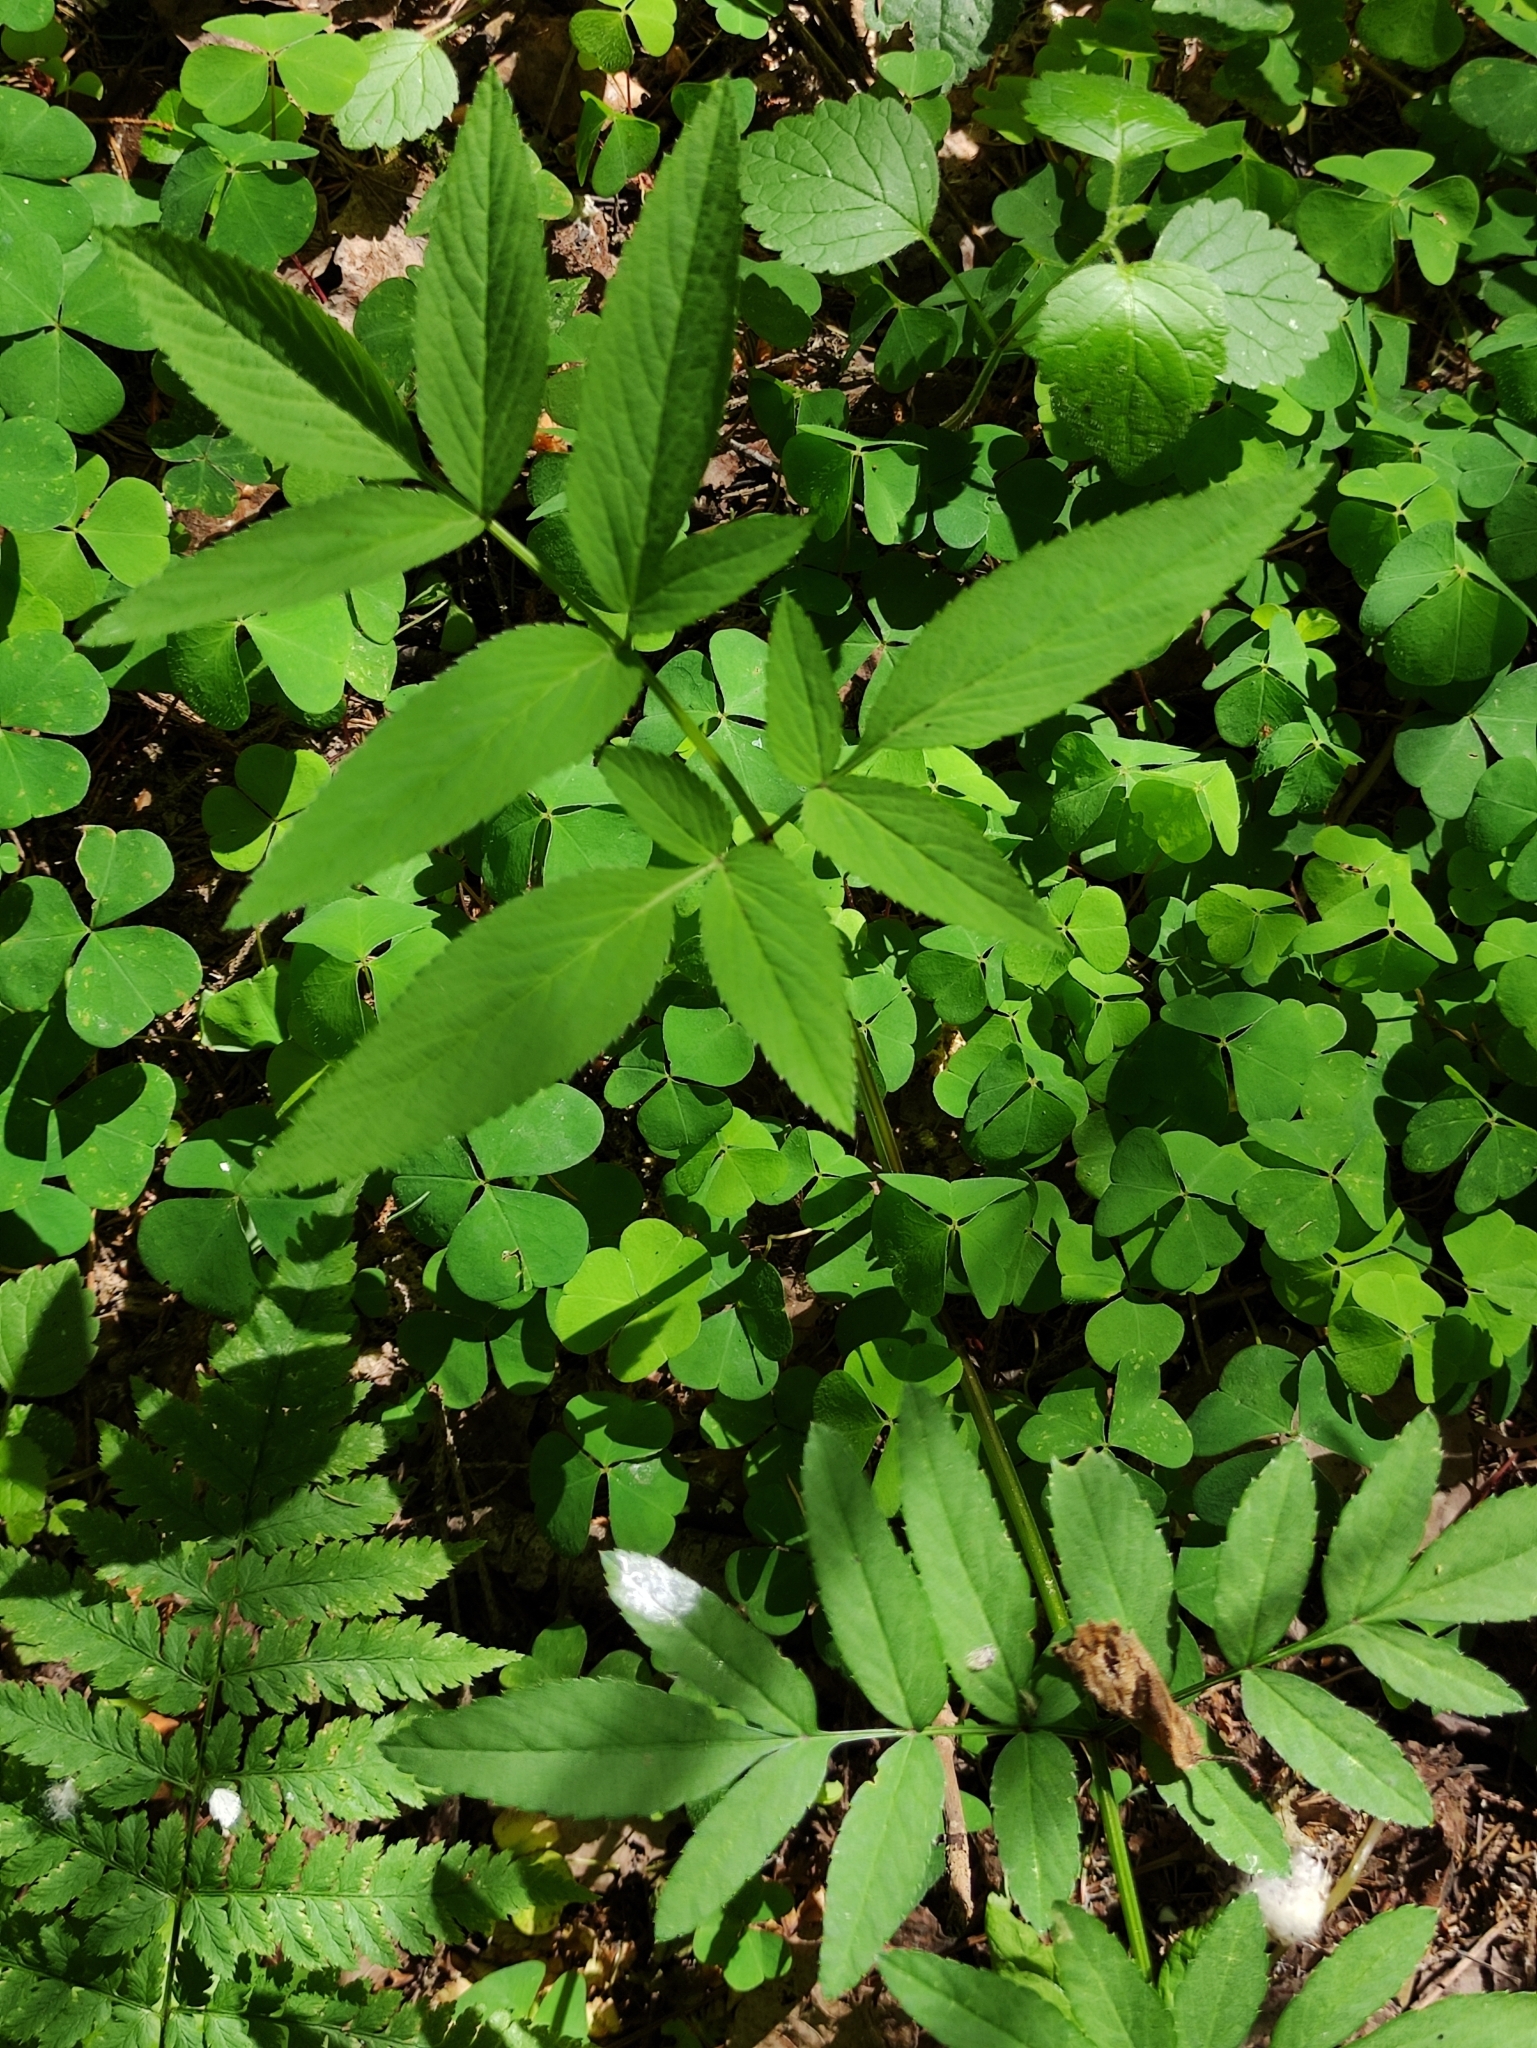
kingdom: Plantae
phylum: Tracheophyta
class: Magnoliopsida
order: Apiales
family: Apiaceae
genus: Angelica
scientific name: Angelica sylvestris
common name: Wild angelica
